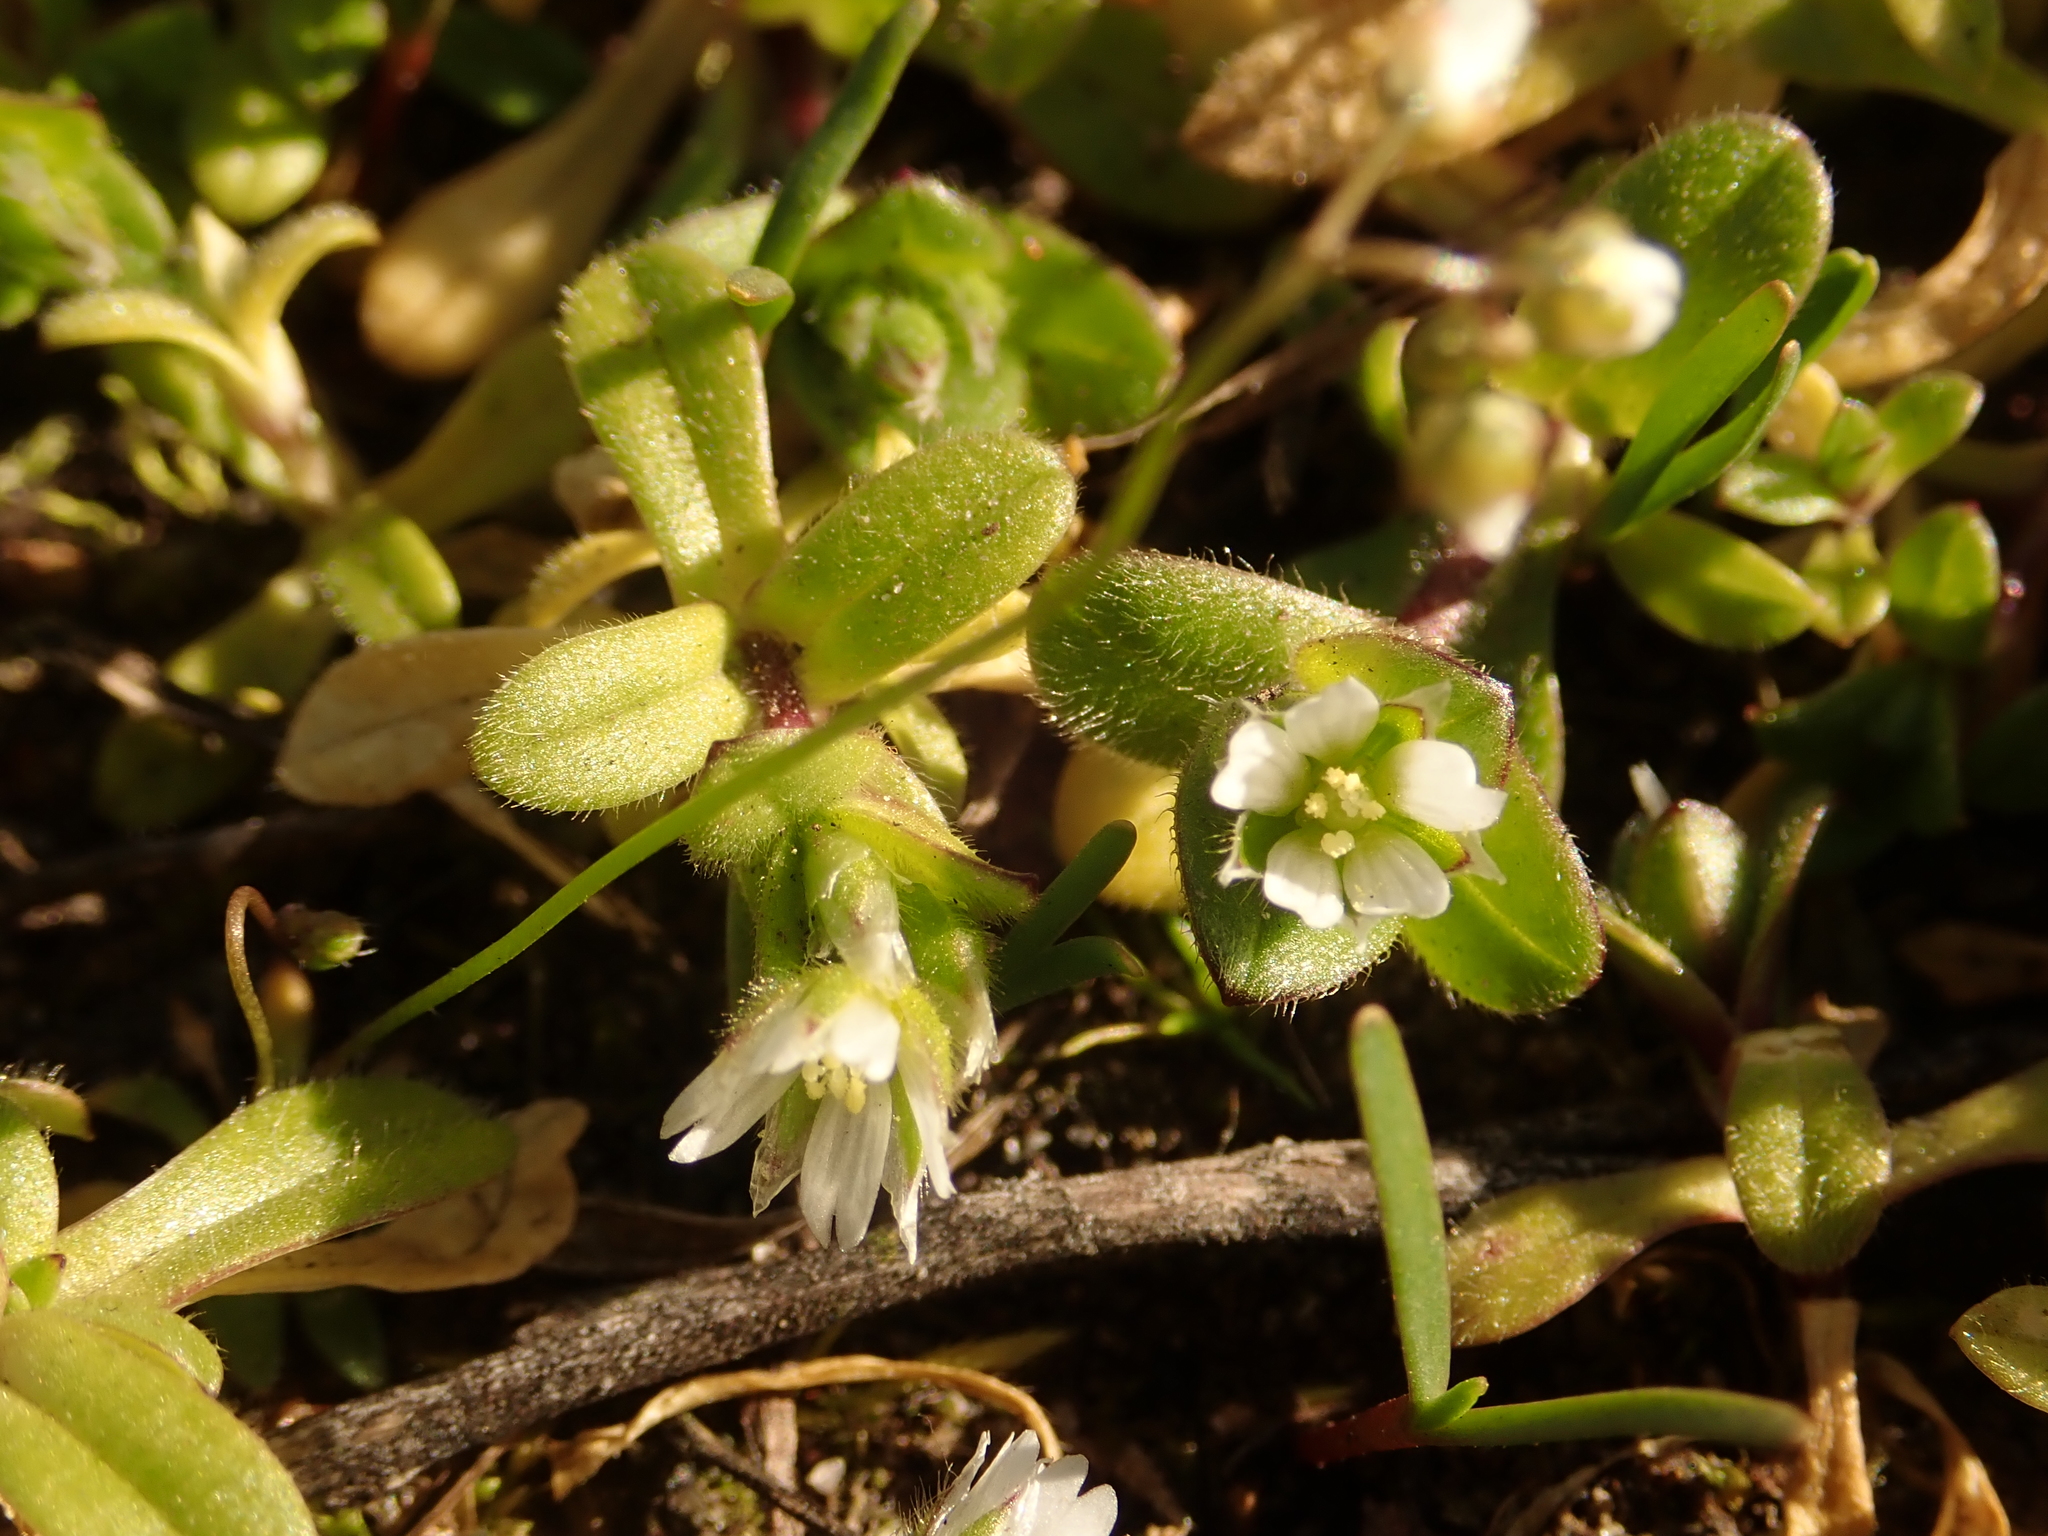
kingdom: Plantae
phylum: Tracheophyta
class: Magnoliopsida
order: Caryophyllales
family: Caryophyllaceae
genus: Cerastium
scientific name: Cerastium semidecandrum
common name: Little mouse-ear
